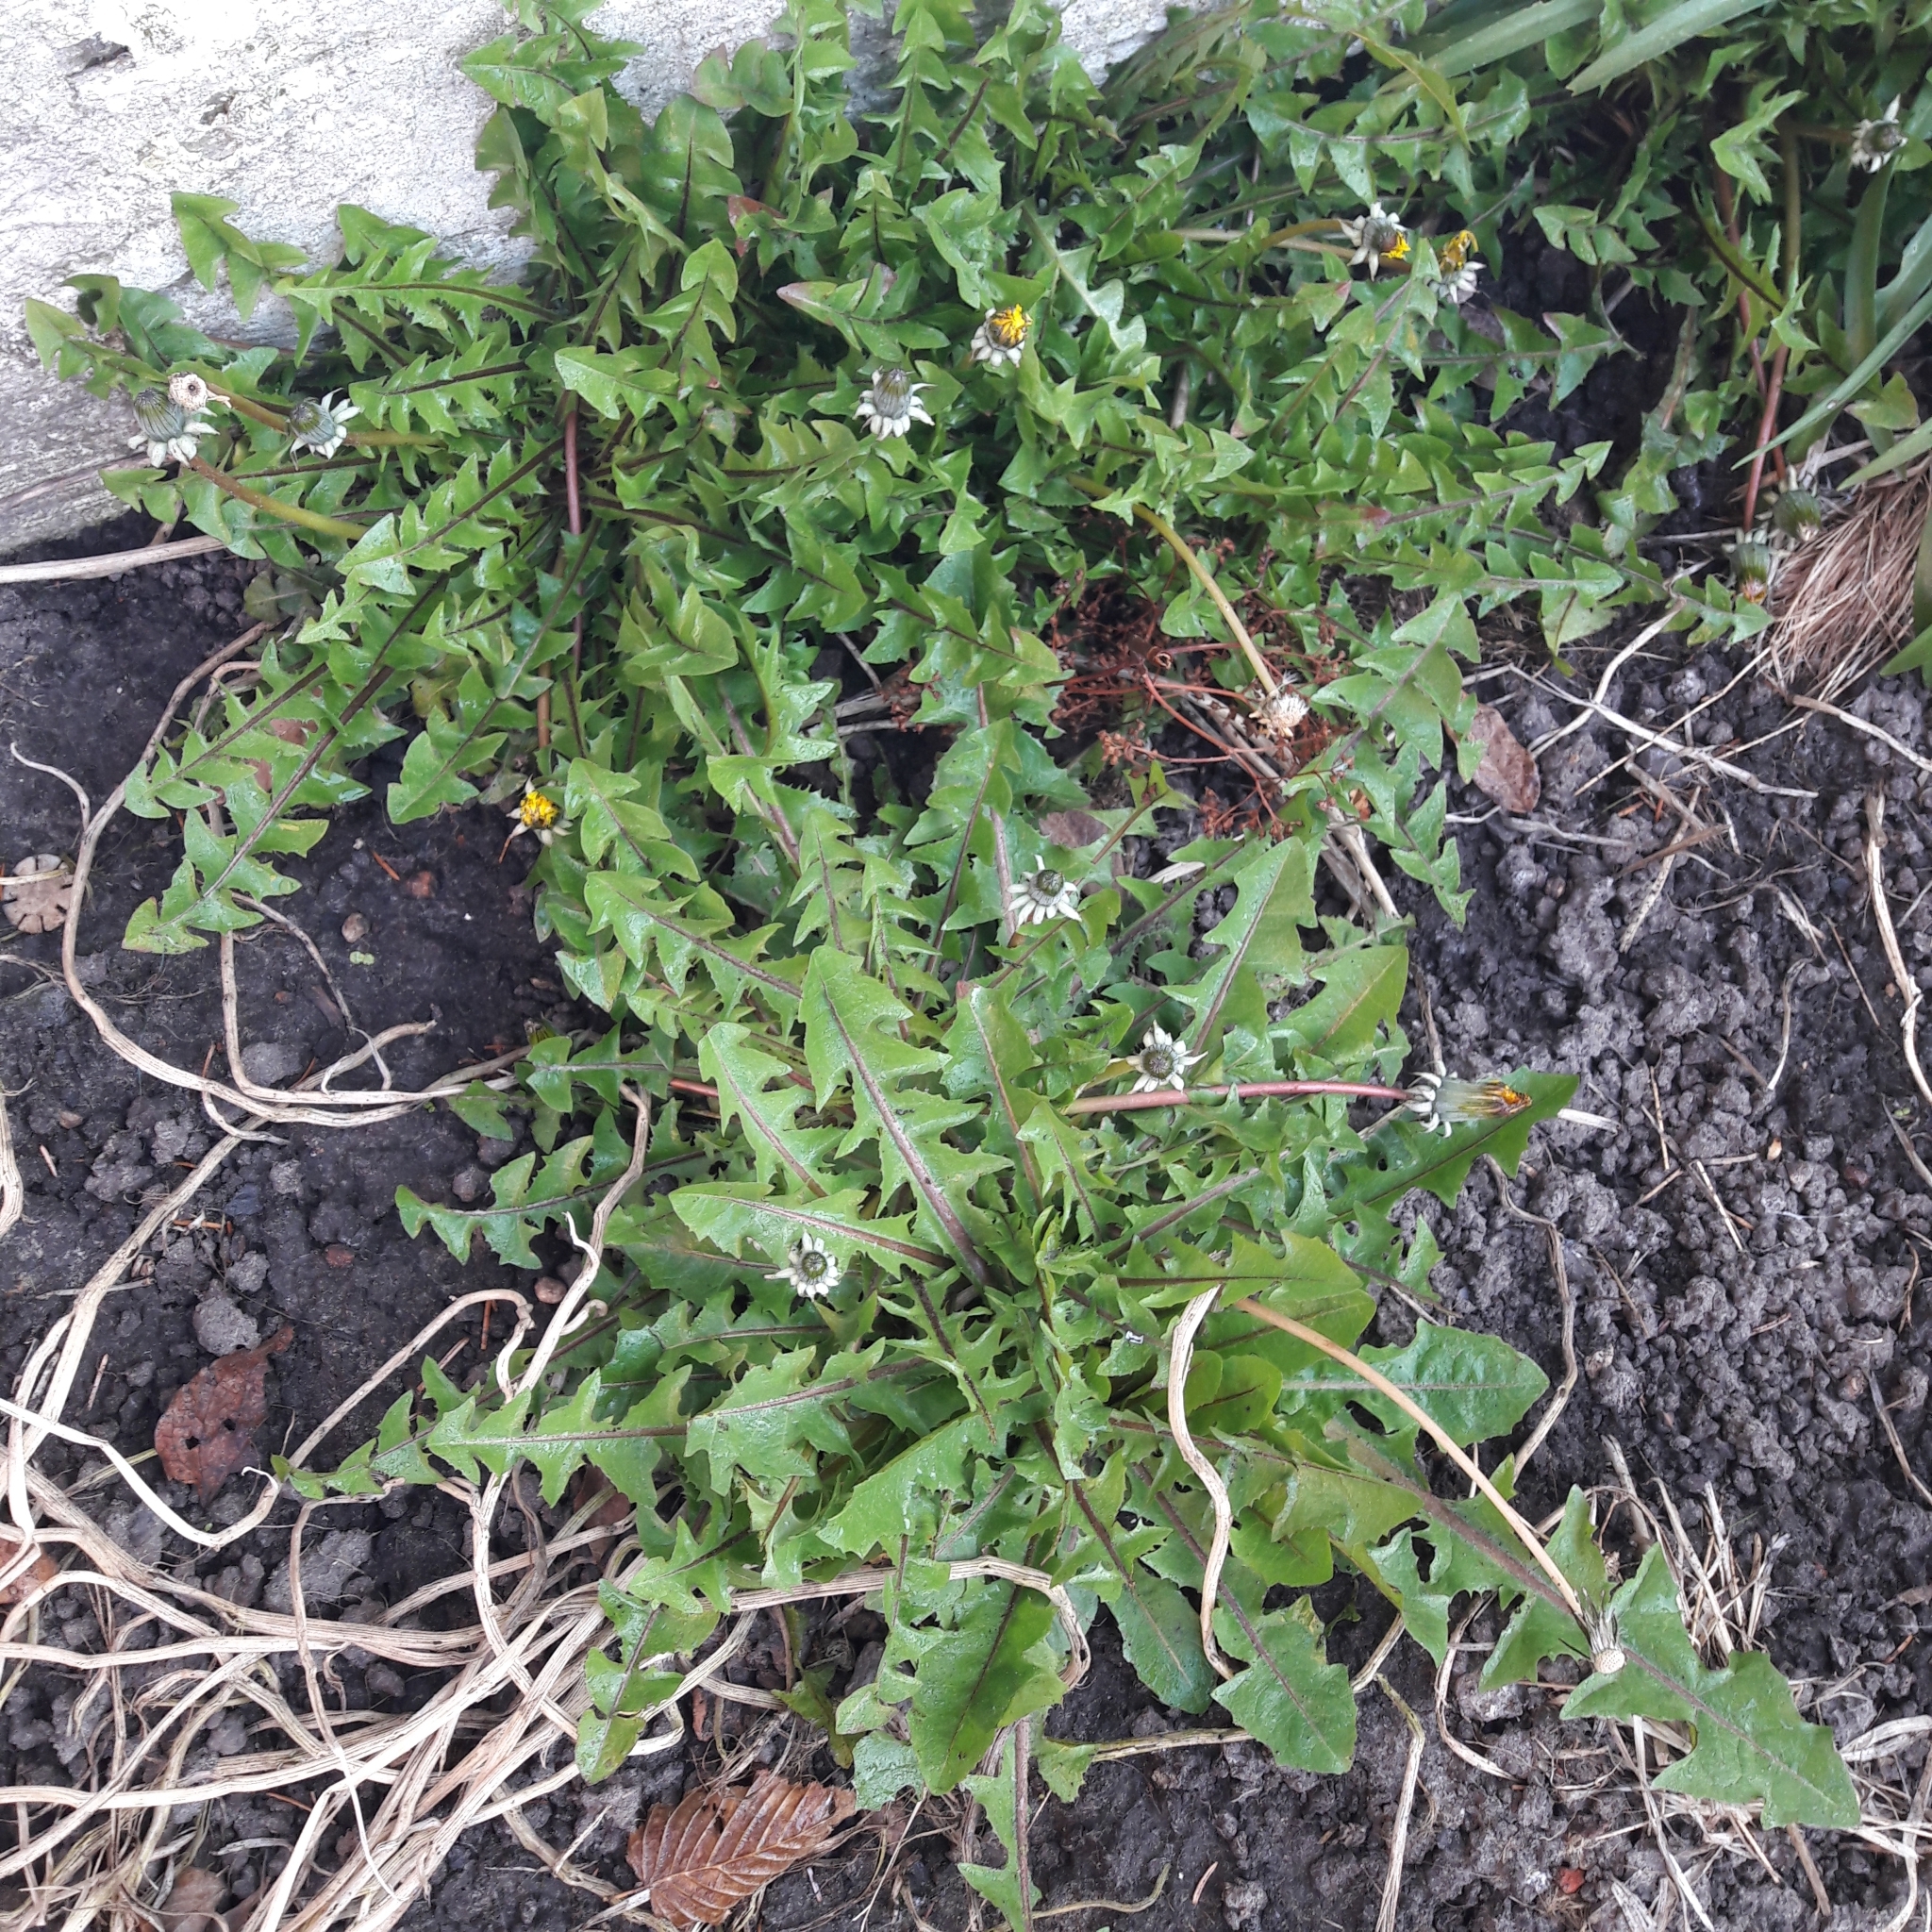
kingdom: Plantae
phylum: Tracheophyta
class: Magnoliopsida
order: Asterales
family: Asteraceae
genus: Taraxacum
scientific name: Taraxacum officinale
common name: Common dandelion
